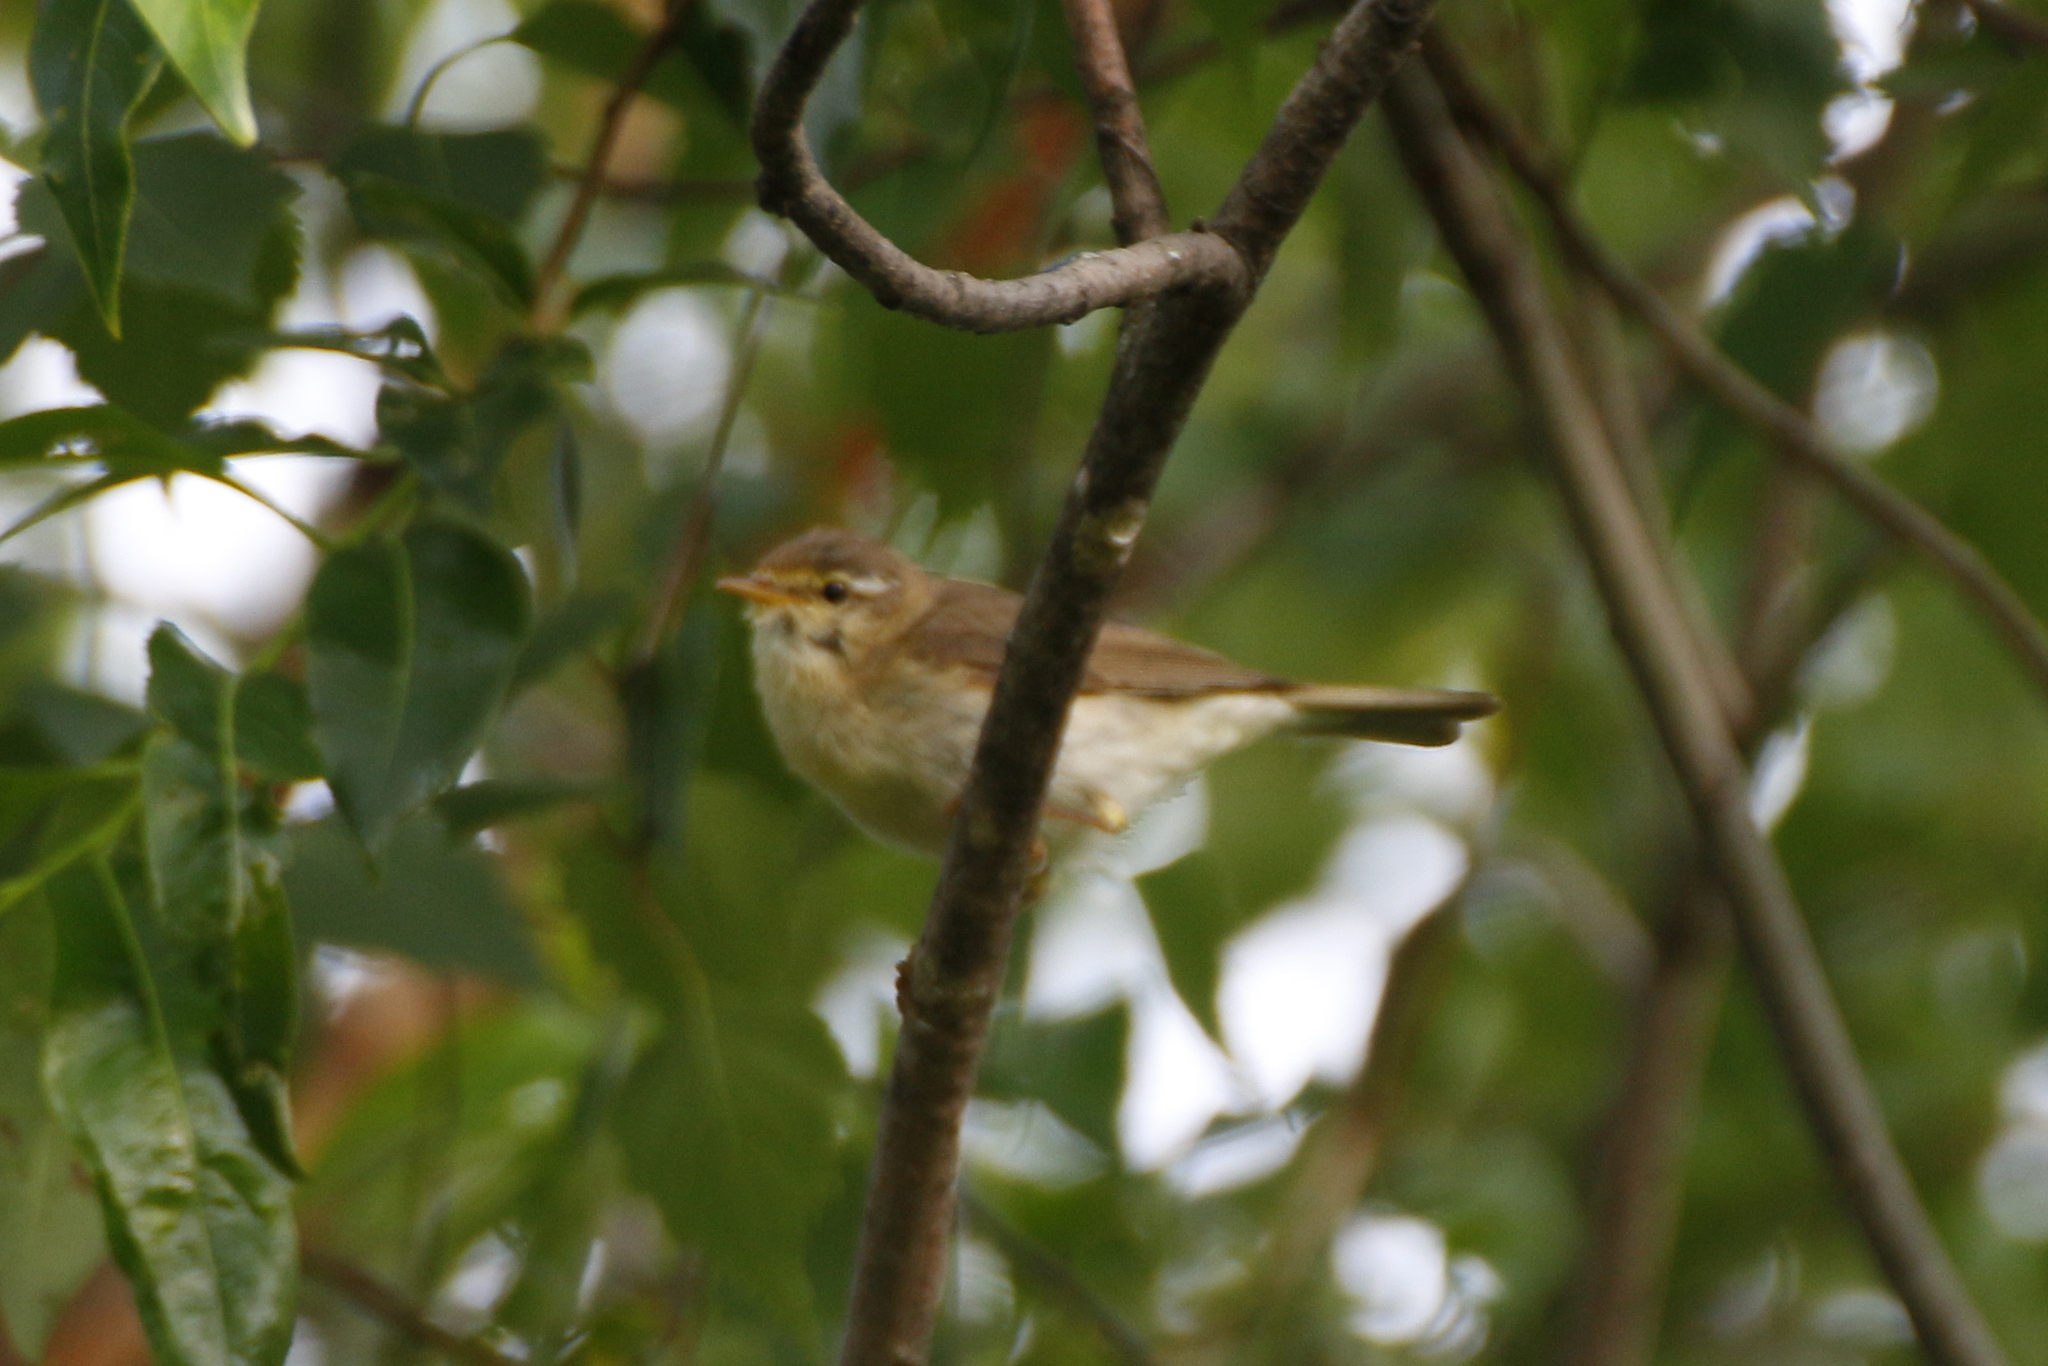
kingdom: Animalia
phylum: Chordata
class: Aves
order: Passeriformes
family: Phylloscopidae
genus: Phylloscopus
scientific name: Phylloscopus trochilus
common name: Willow warbler
